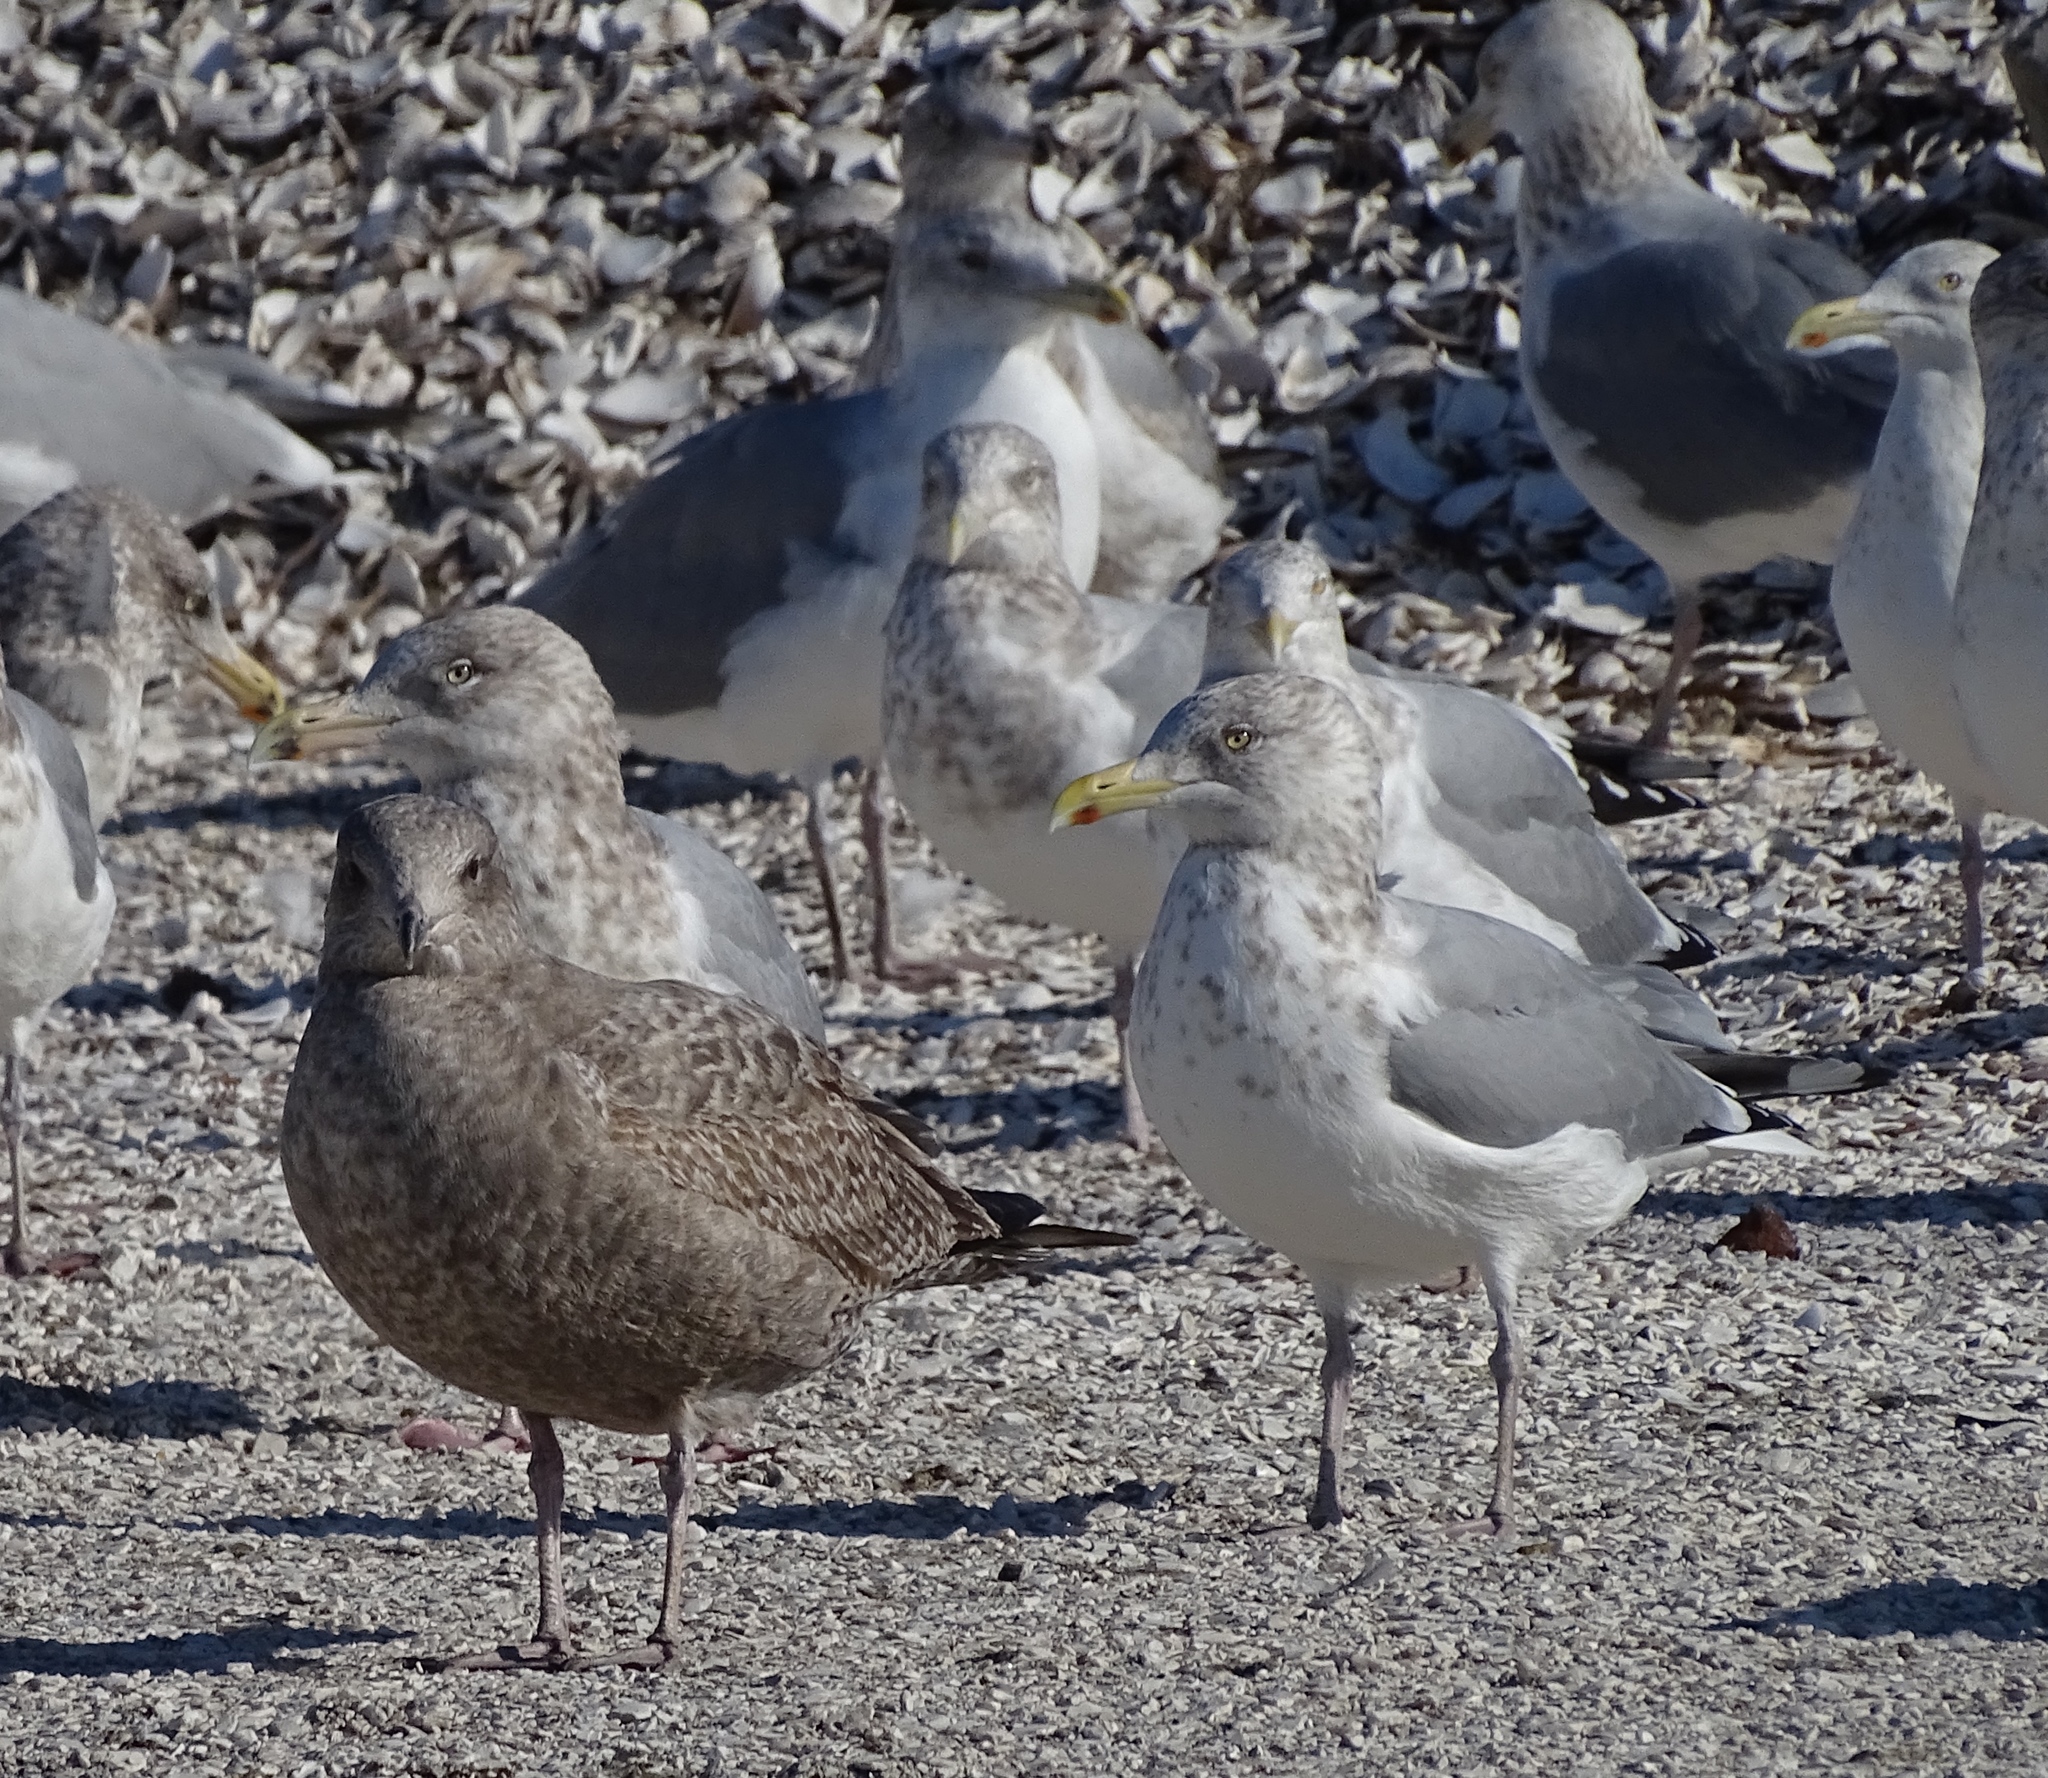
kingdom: Animalia
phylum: Chordata
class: Aves
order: Charadriiformes
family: Laridae
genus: Larus
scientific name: Larus argentatus
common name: Herring gull
